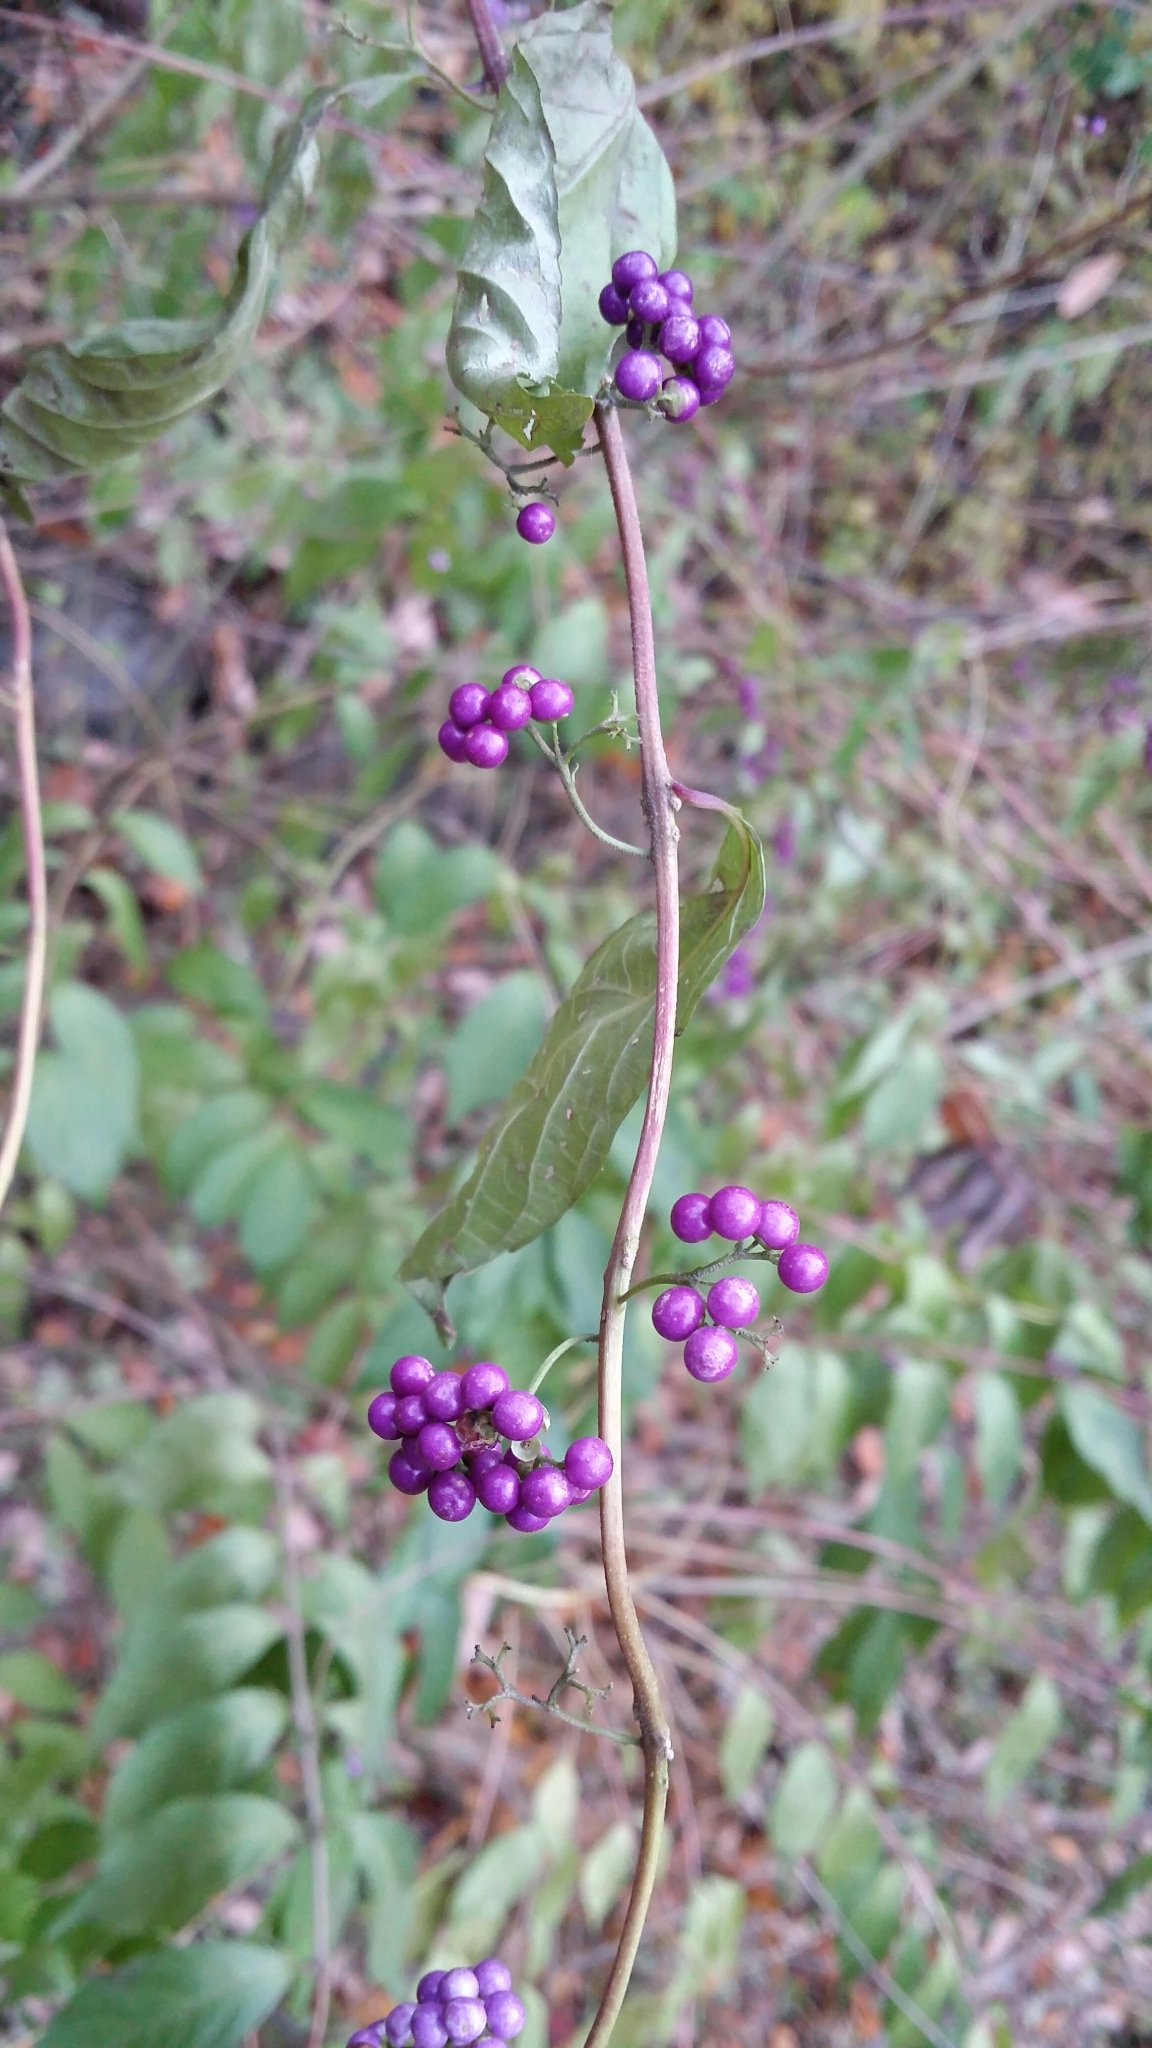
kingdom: Plantae
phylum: Tracheophyta
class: Magnoliopsida
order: Lamiales
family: Lamiaceae
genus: Callicarpa
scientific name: Callicarpa dichotoma
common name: Purple beauty-berry
